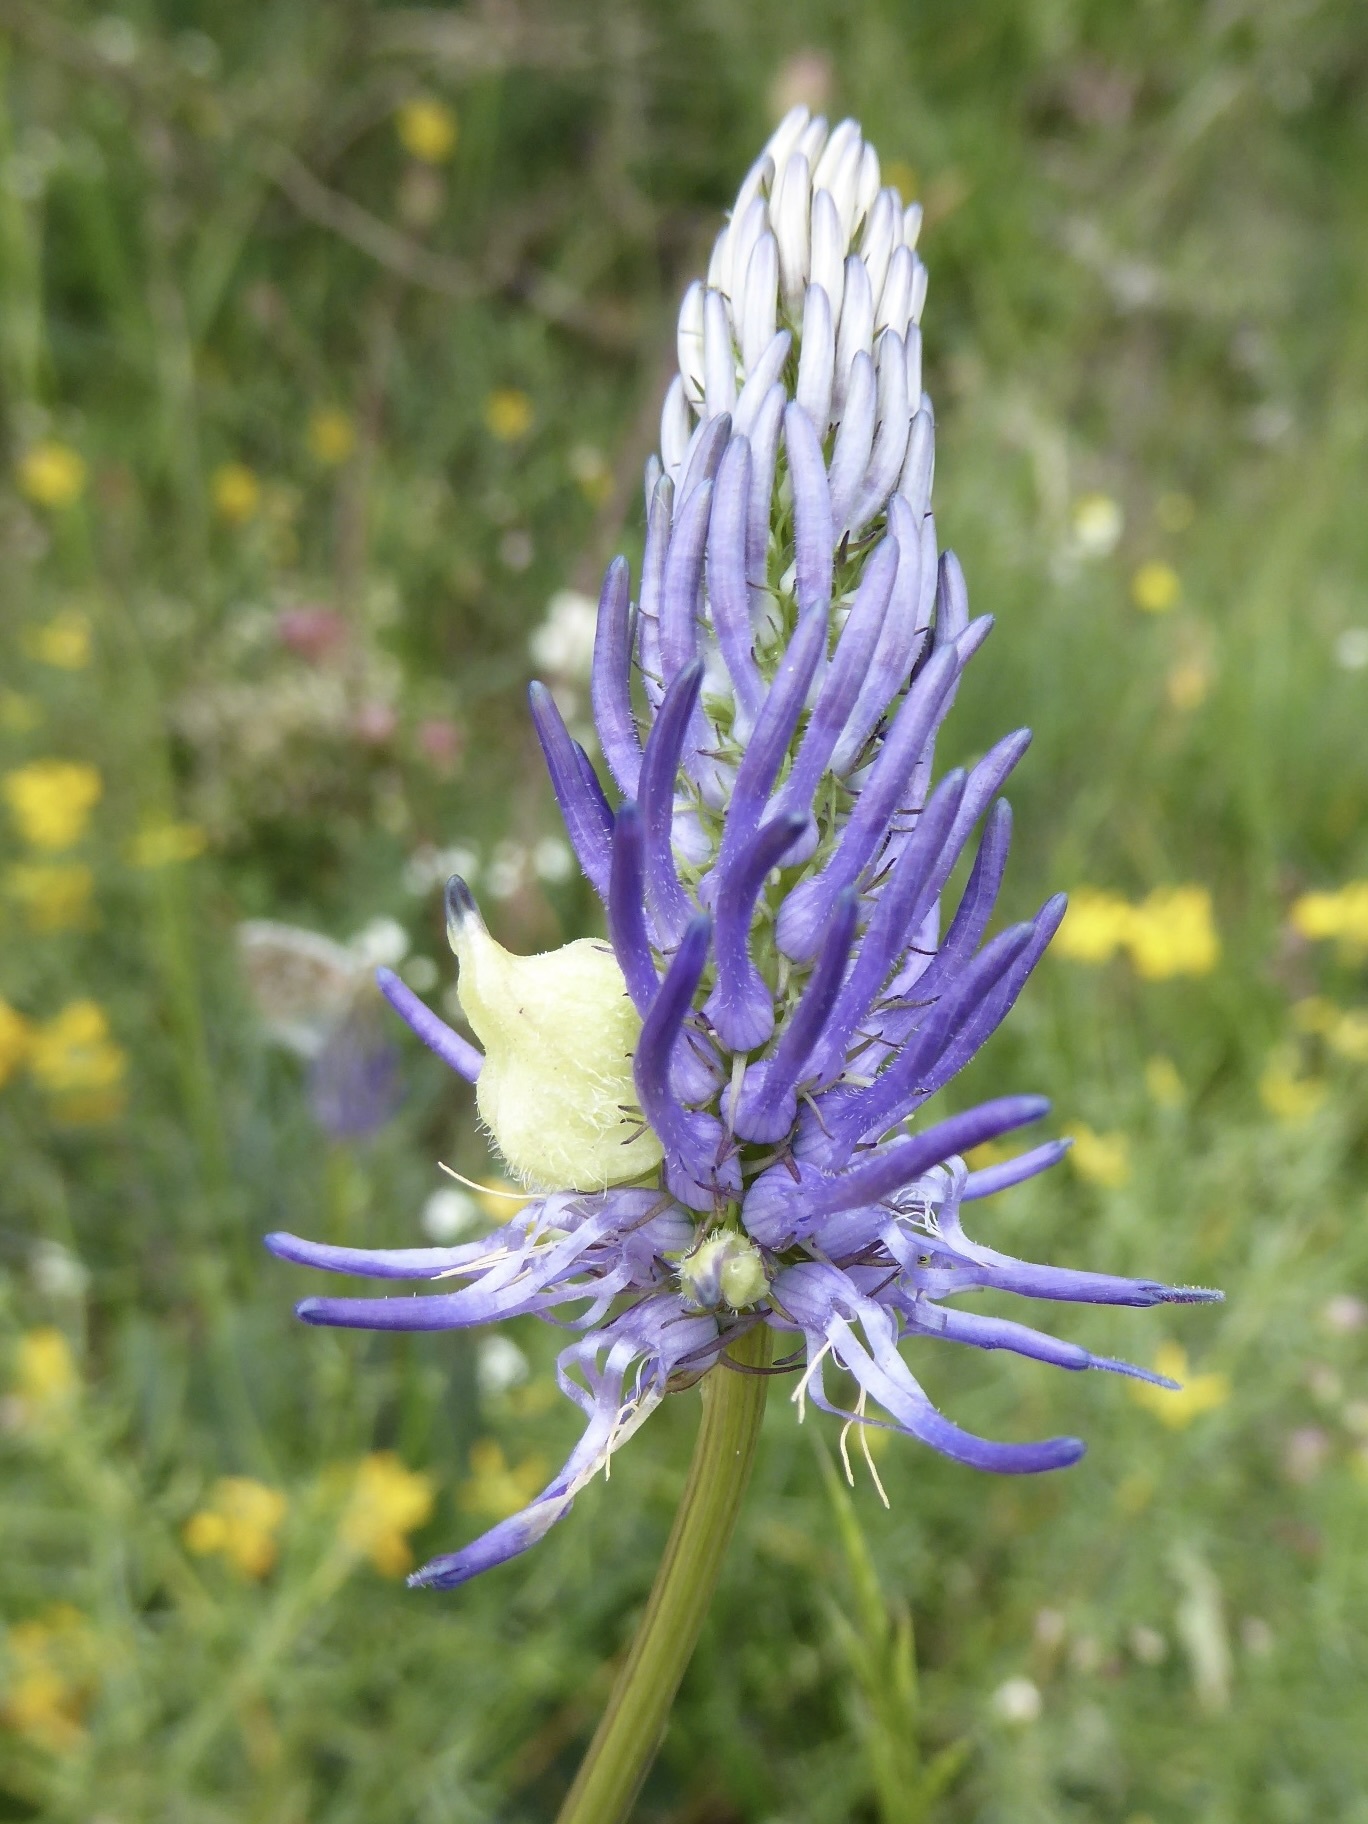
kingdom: Plantae
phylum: Tracheophyta
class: Magnoliopsida
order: Asterales
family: Campanulaceae
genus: Phyteuma
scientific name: Phyteuma betonicifolium
